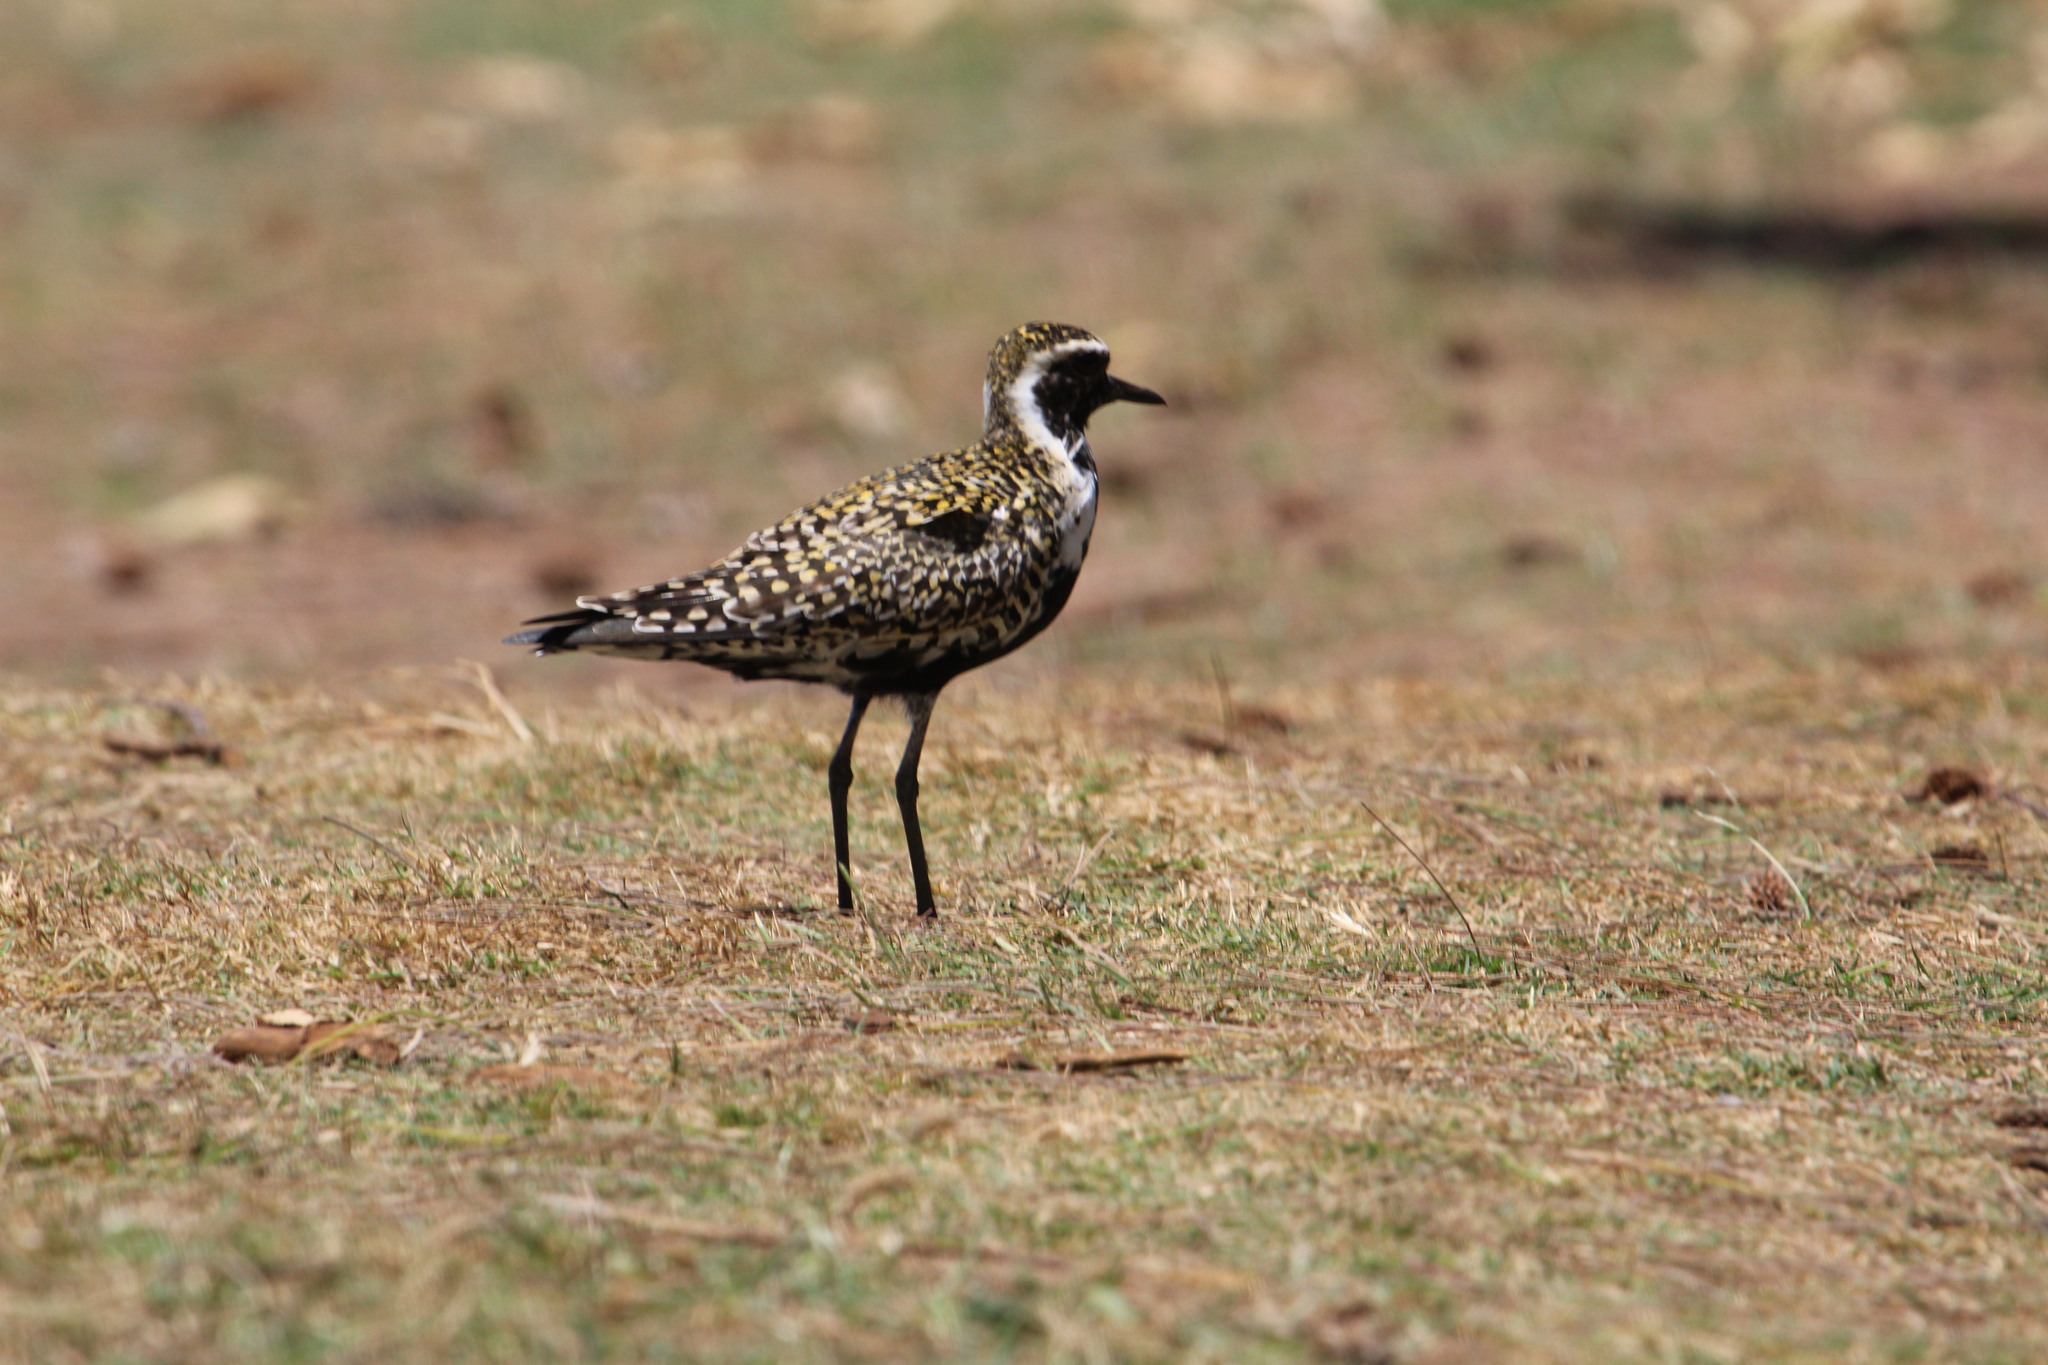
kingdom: Animalia
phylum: Chordata
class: Aves
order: Charadriiformes
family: Charadriidae
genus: Pluvialis
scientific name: Pluvialis fulva
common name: Pacific golden plover
